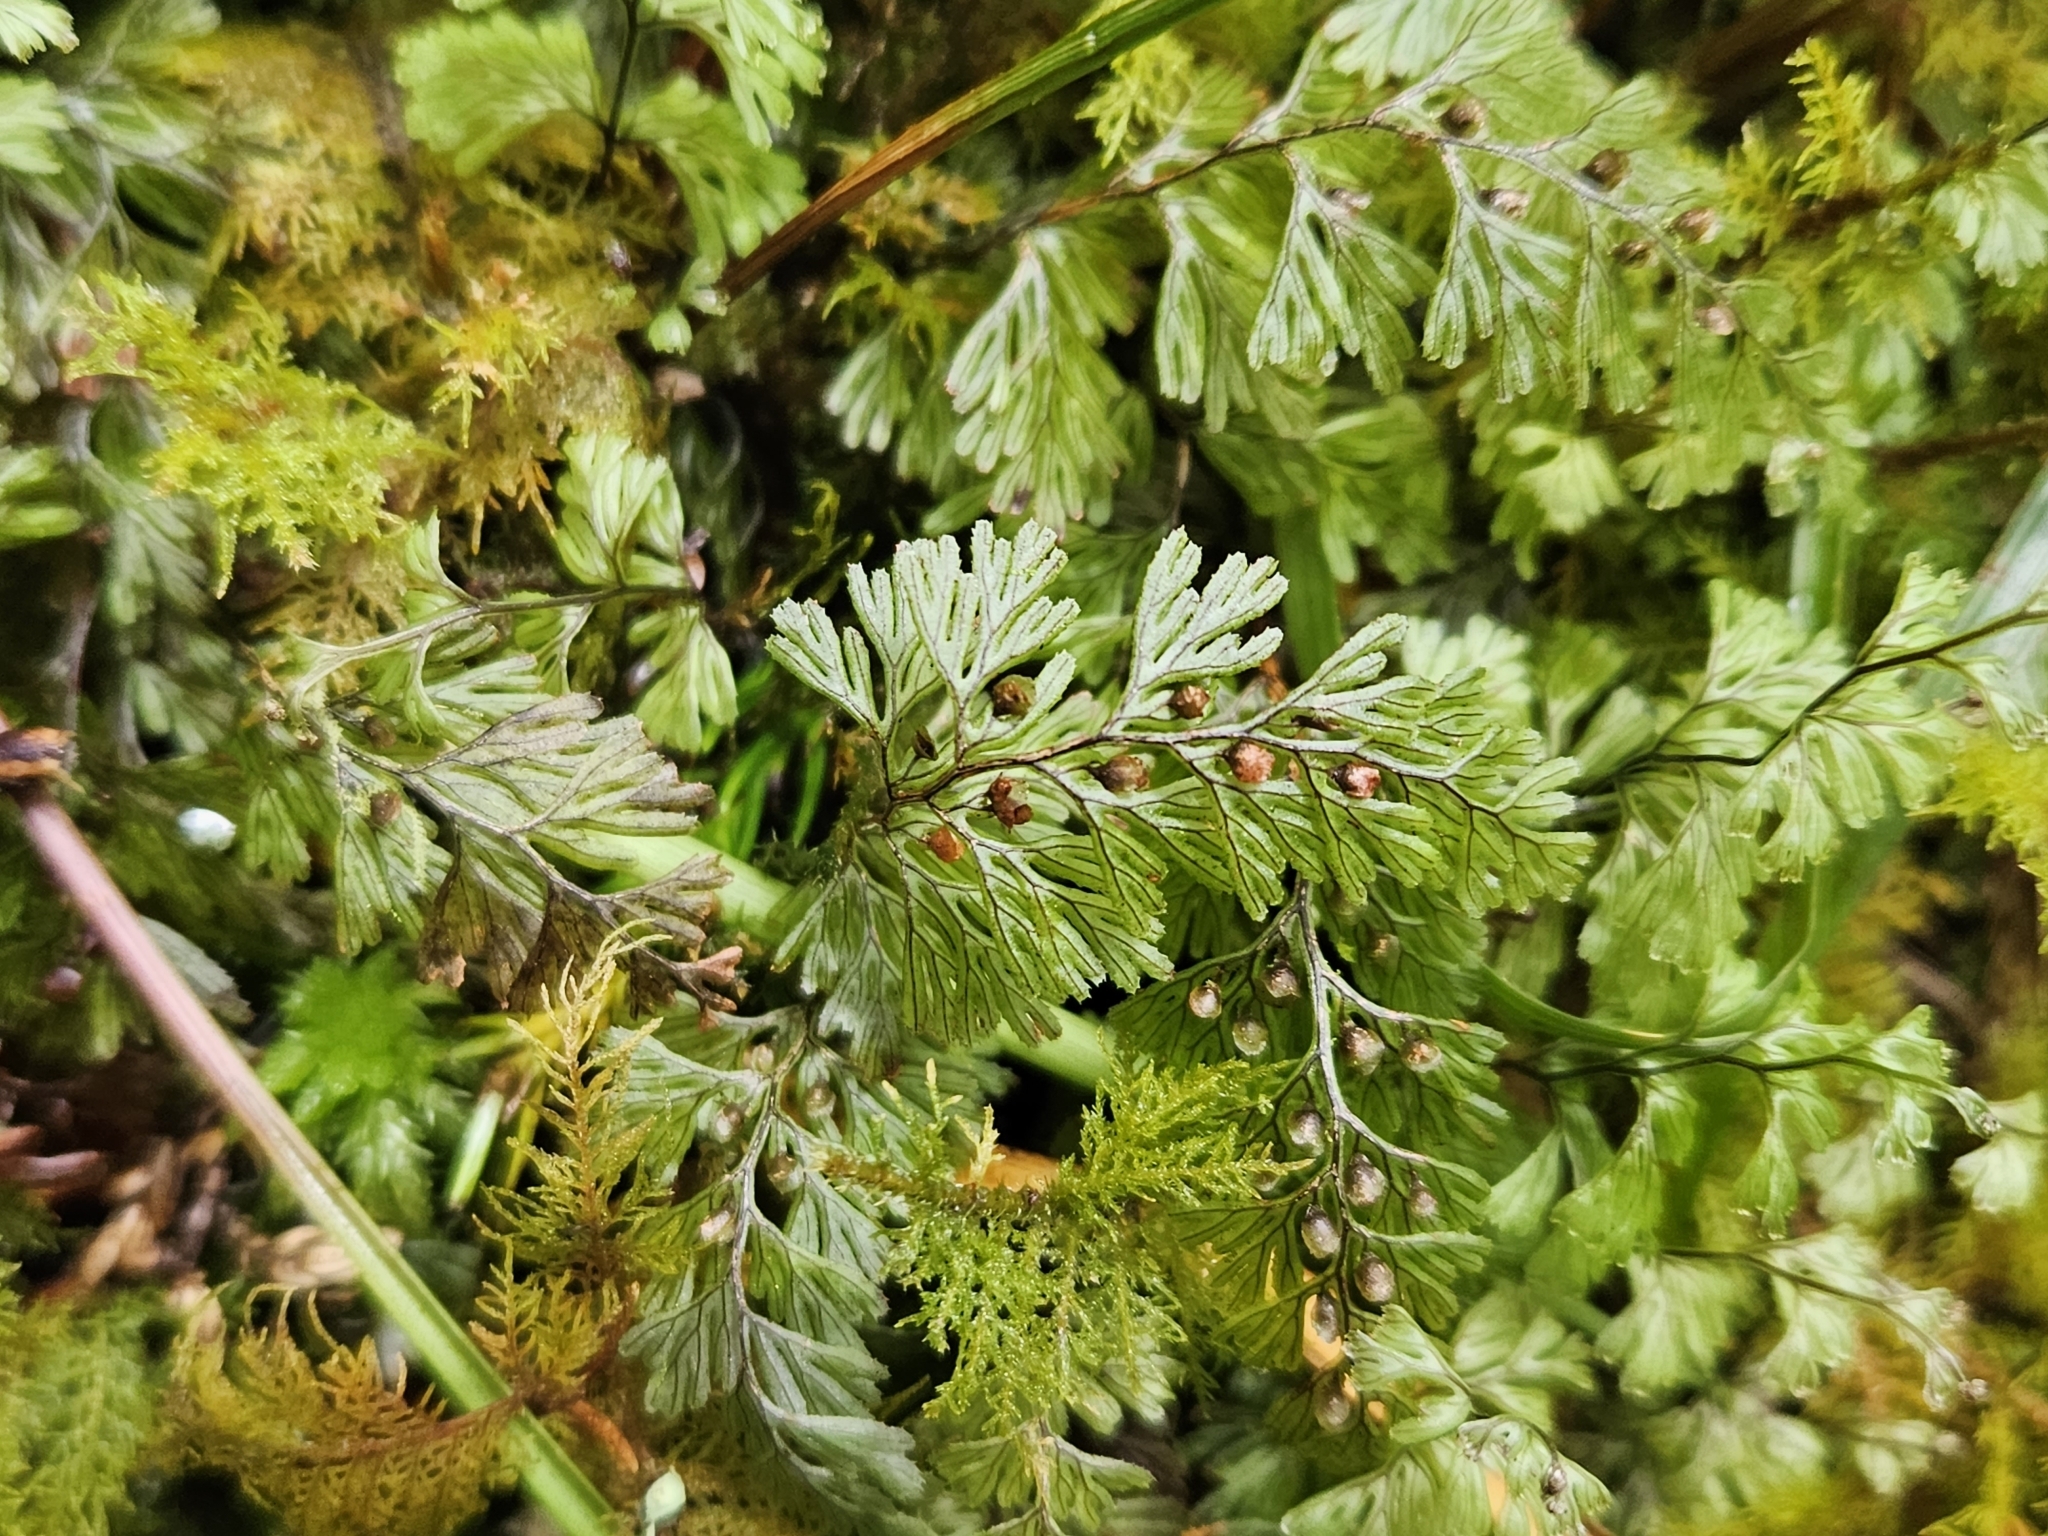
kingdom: Plantae
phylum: Tracheophyta
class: Polypodiopsida
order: Hymenophyllales
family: Hymenophyllaceae
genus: Hymenophyllum
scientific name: Hymenophyllum tunbrigense
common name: Tunbridge filmy fern
